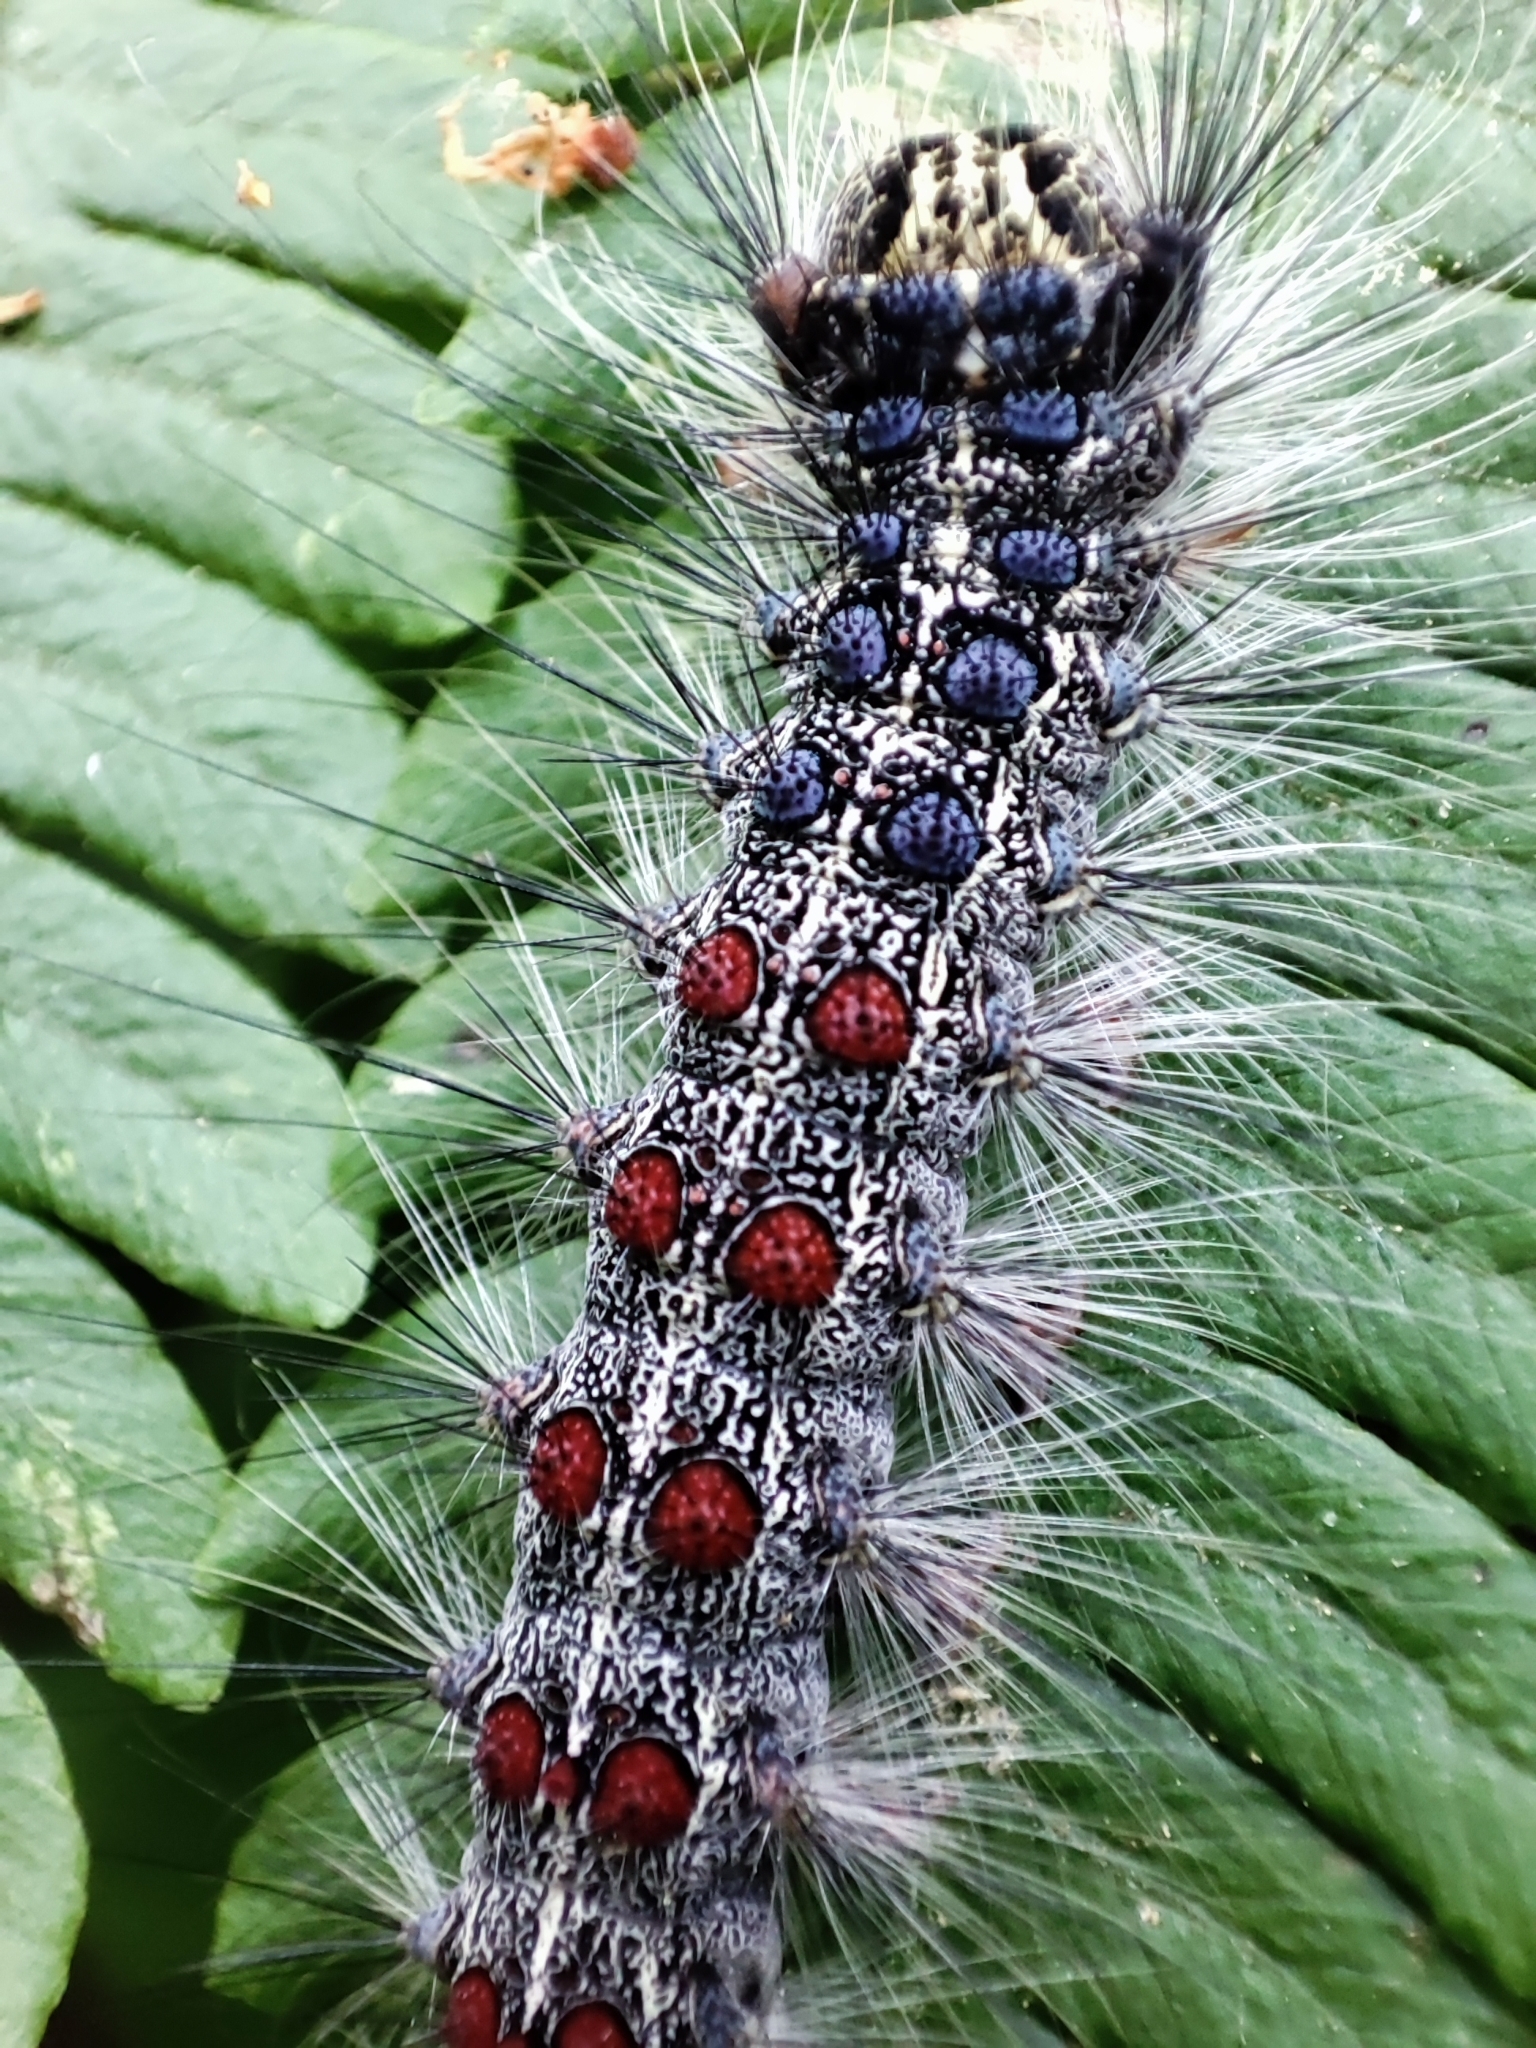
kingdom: Animalia
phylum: Arthropoda
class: Insecta
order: Lepidoptera
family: Erebidae
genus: Lymantria
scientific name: Lymantria dispar
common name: Gypsy moth
